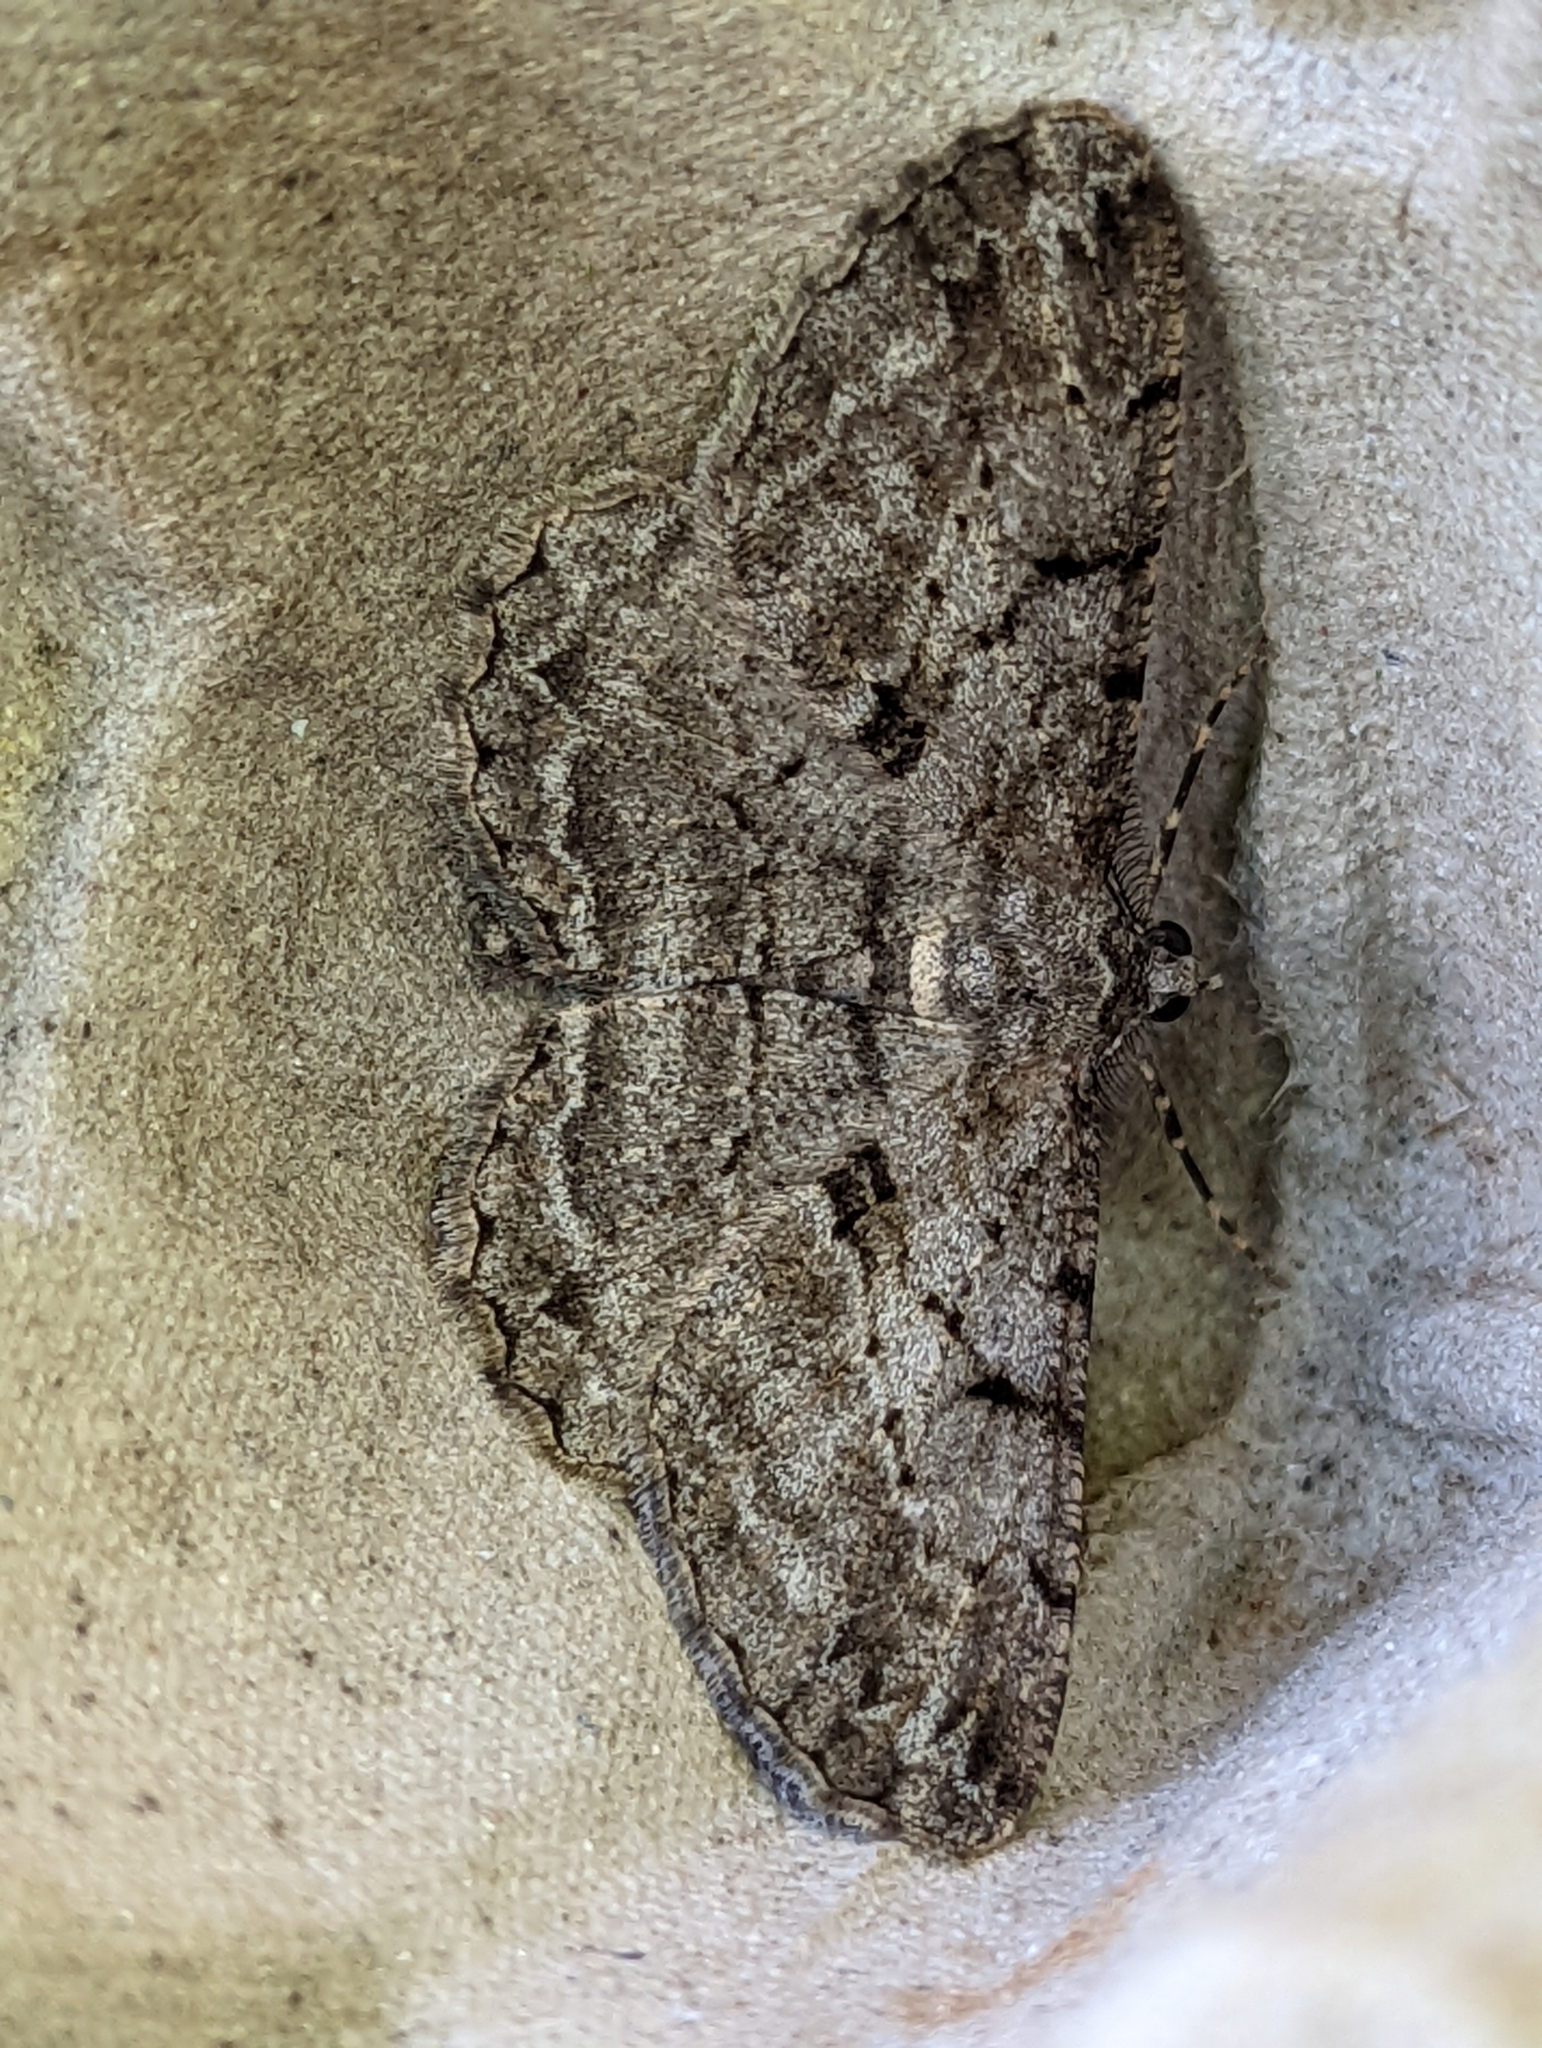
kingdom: Animalia
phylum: Arthropoda
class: Insecta
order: Lepidoptera
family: Geometridae
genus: Peribatodes
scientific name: Peribatodes rhomboidaria
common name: Willow beauty
